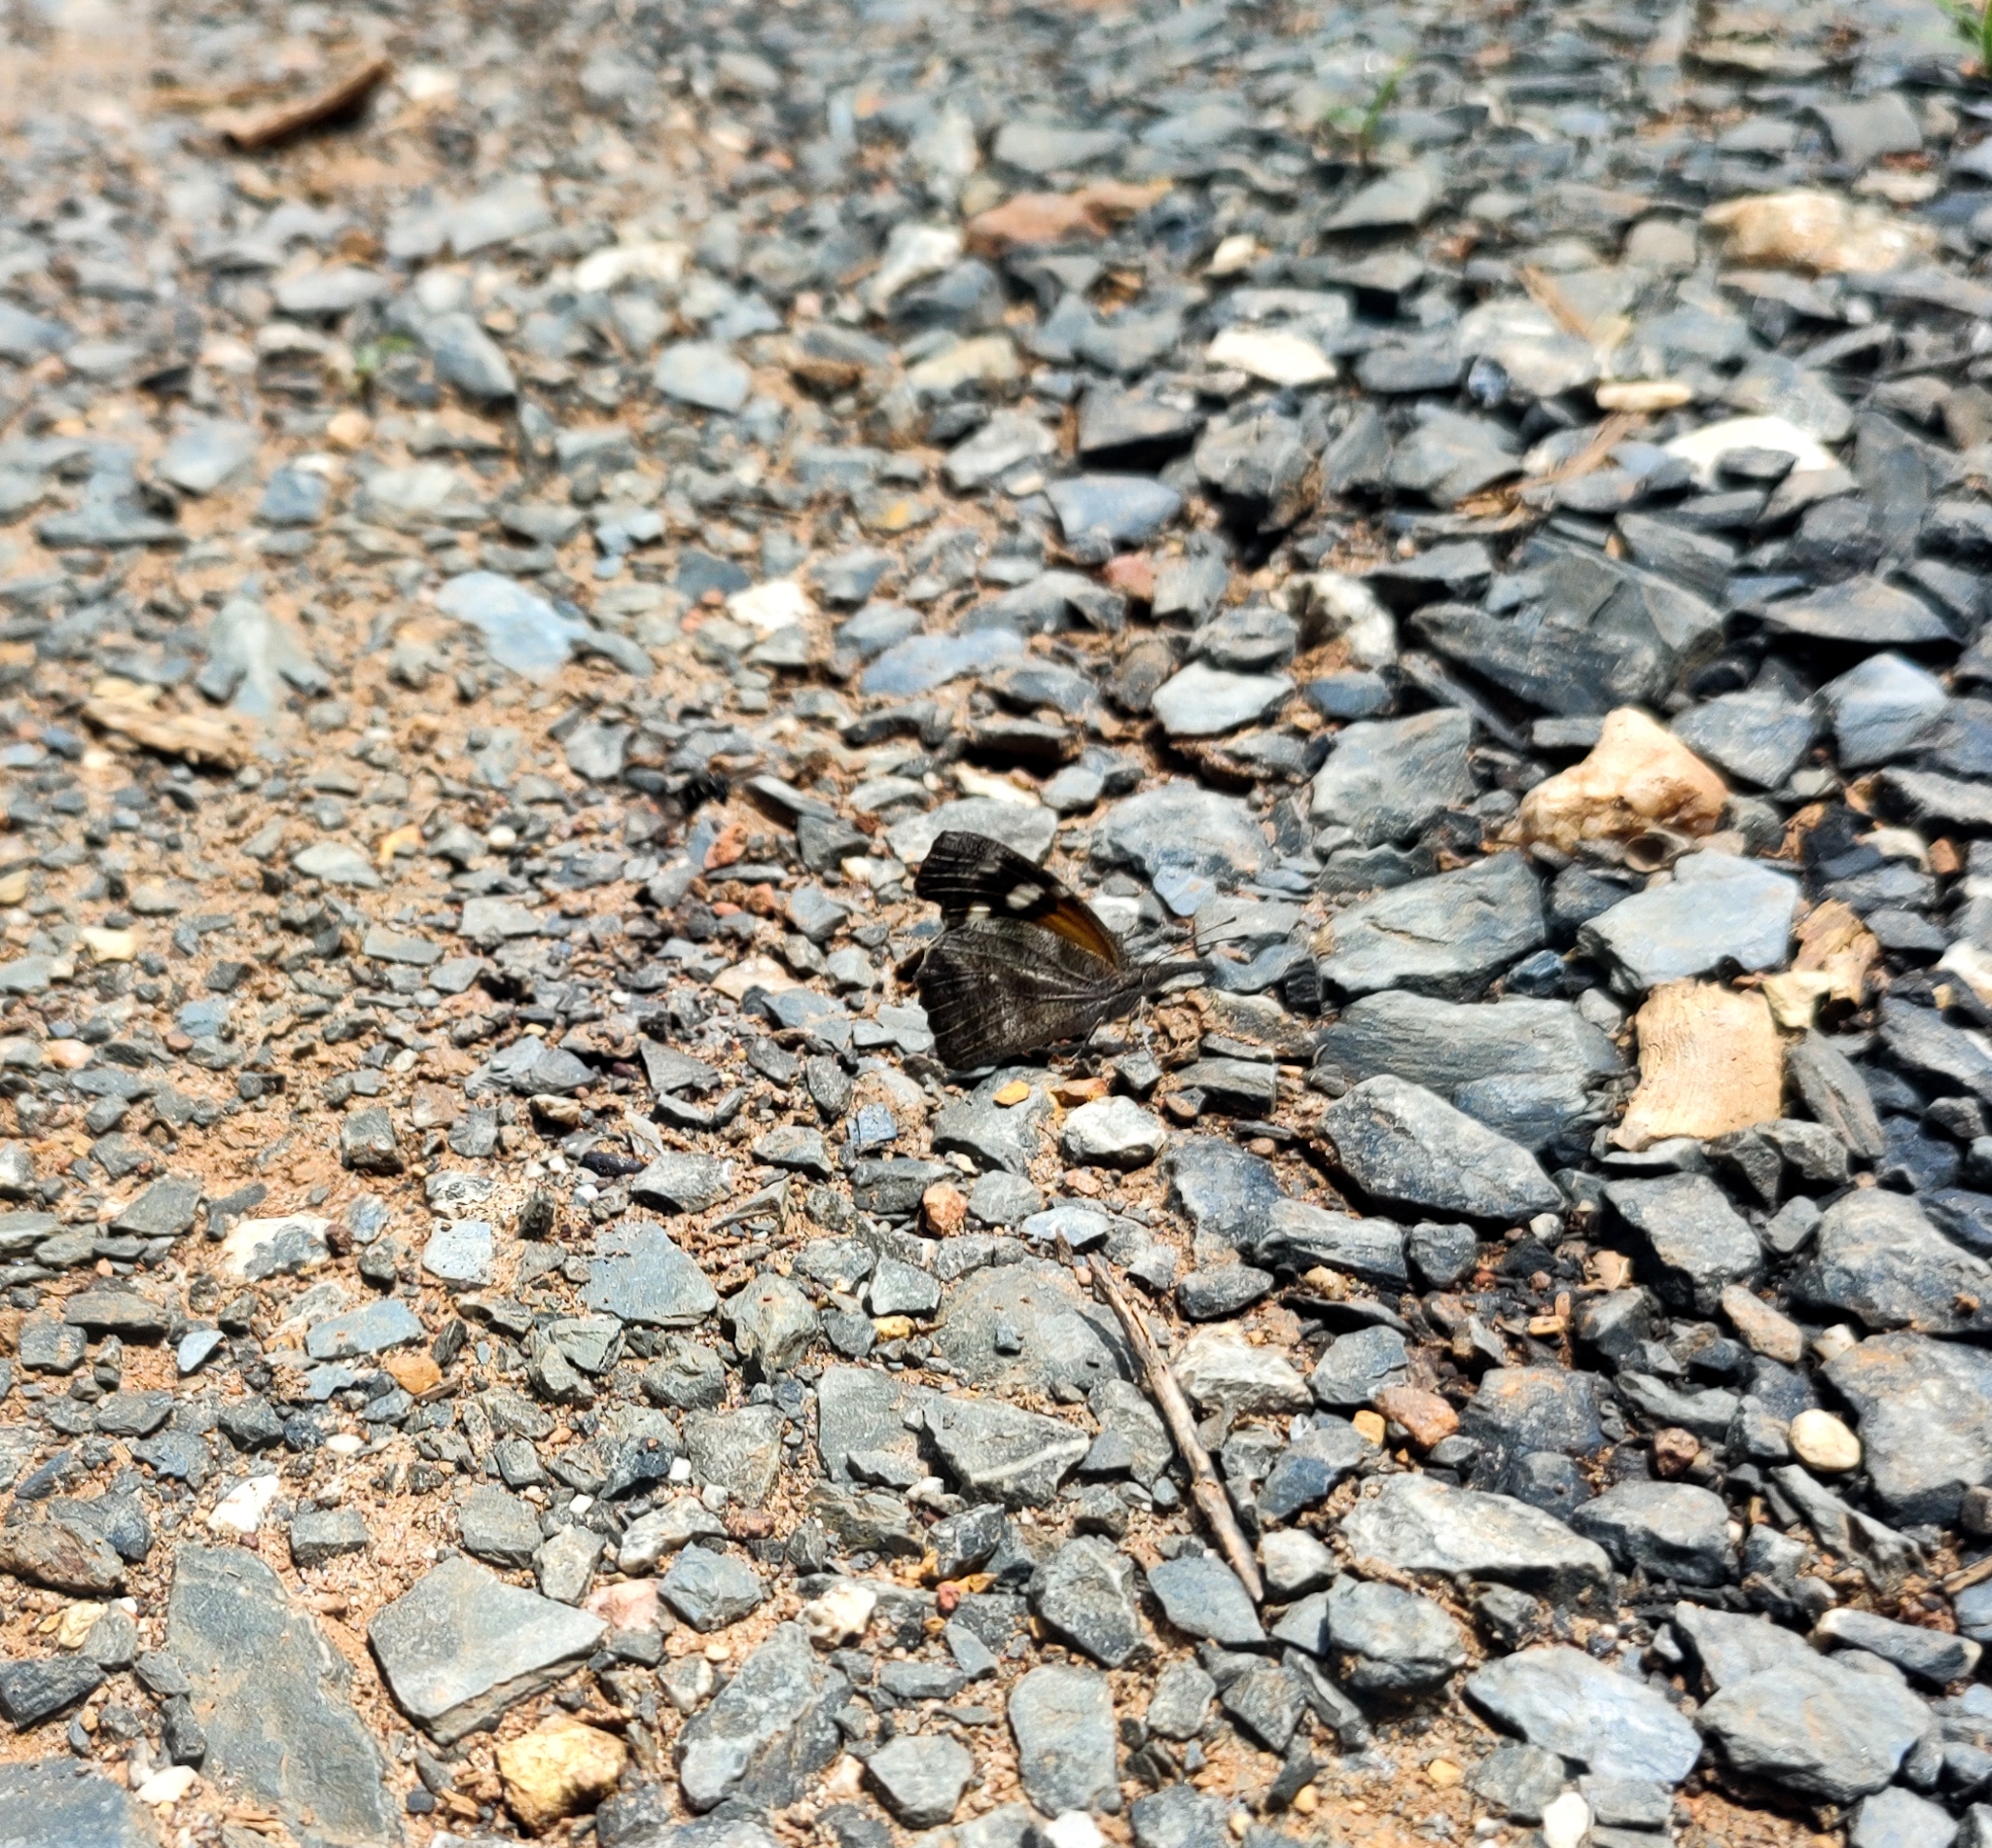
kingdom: Animalia
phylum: Arthropoda
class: Insecta
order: Lepidoptera
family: Nymphalidae
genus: Libytheana
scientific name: Libytheana carinenta
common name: American snout
